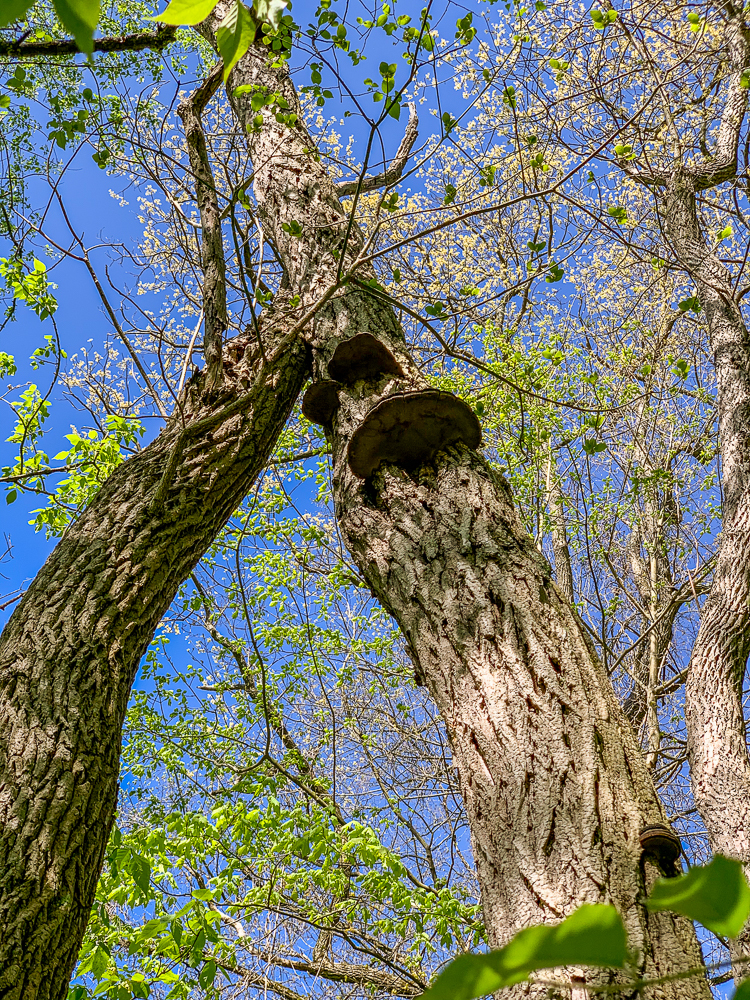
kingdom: Fungi
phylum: Basidiomycota
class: Agaricomycetes
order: Hymenochaetales
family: Hymenochaetaceae
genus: Phellinus
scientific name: Phellinus robiniae
